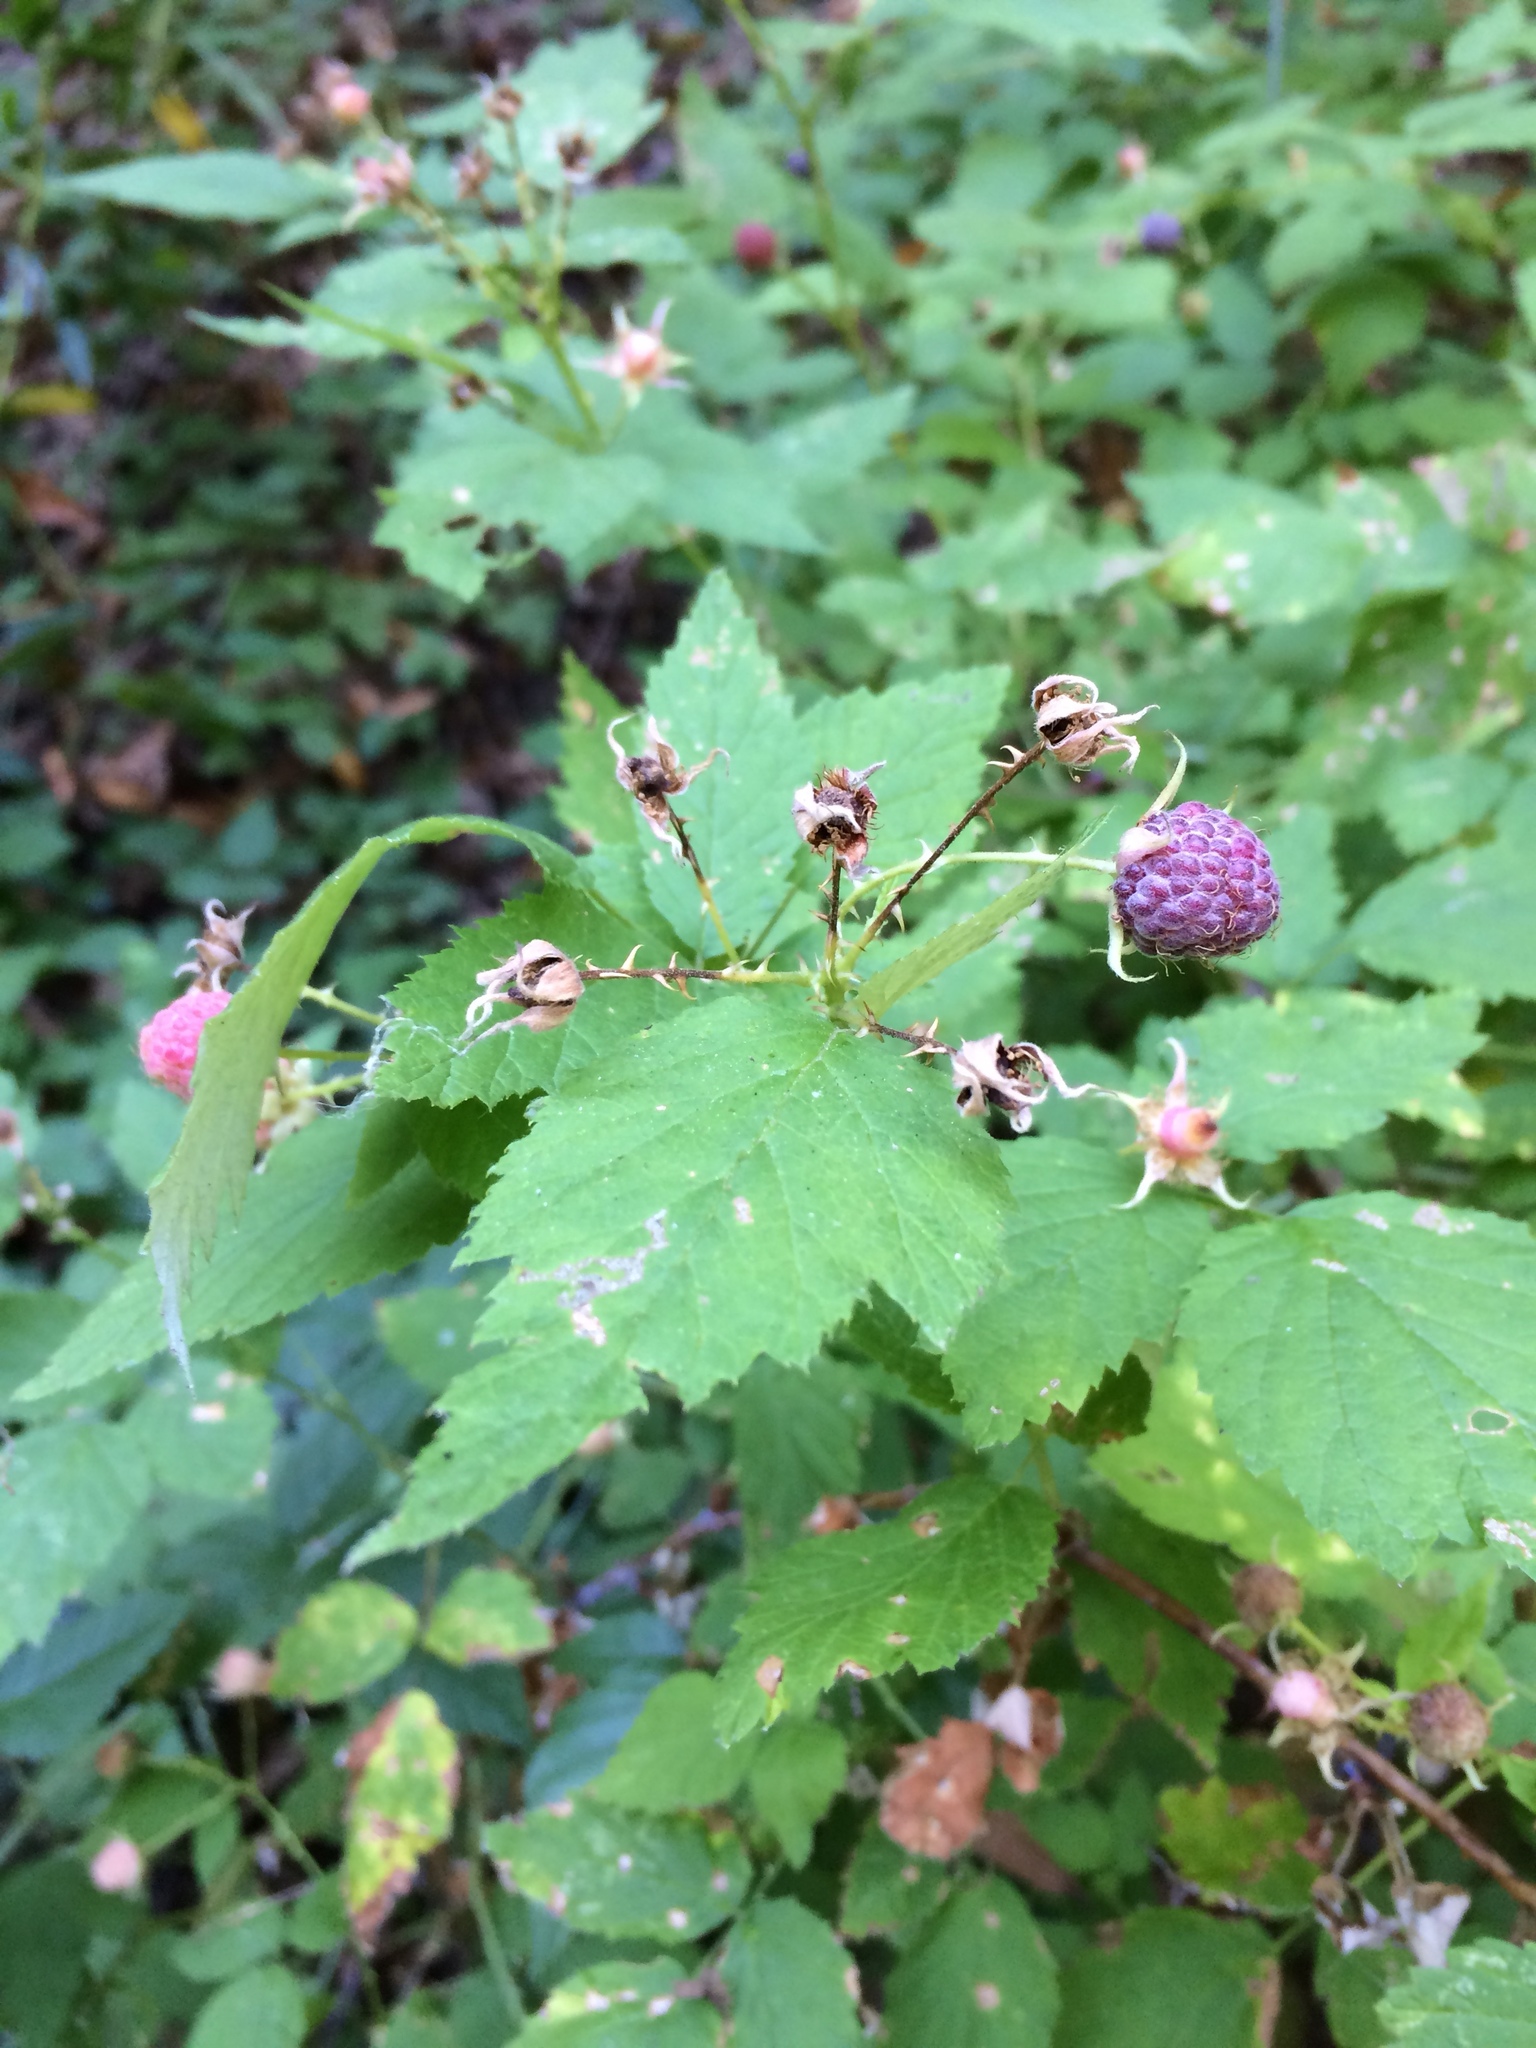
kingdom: Plantae
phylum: Tracheophyta
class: Magnoliopsida
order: Rosales
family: Rosaceae
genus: Rubus
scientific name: Rubus leucodermis
